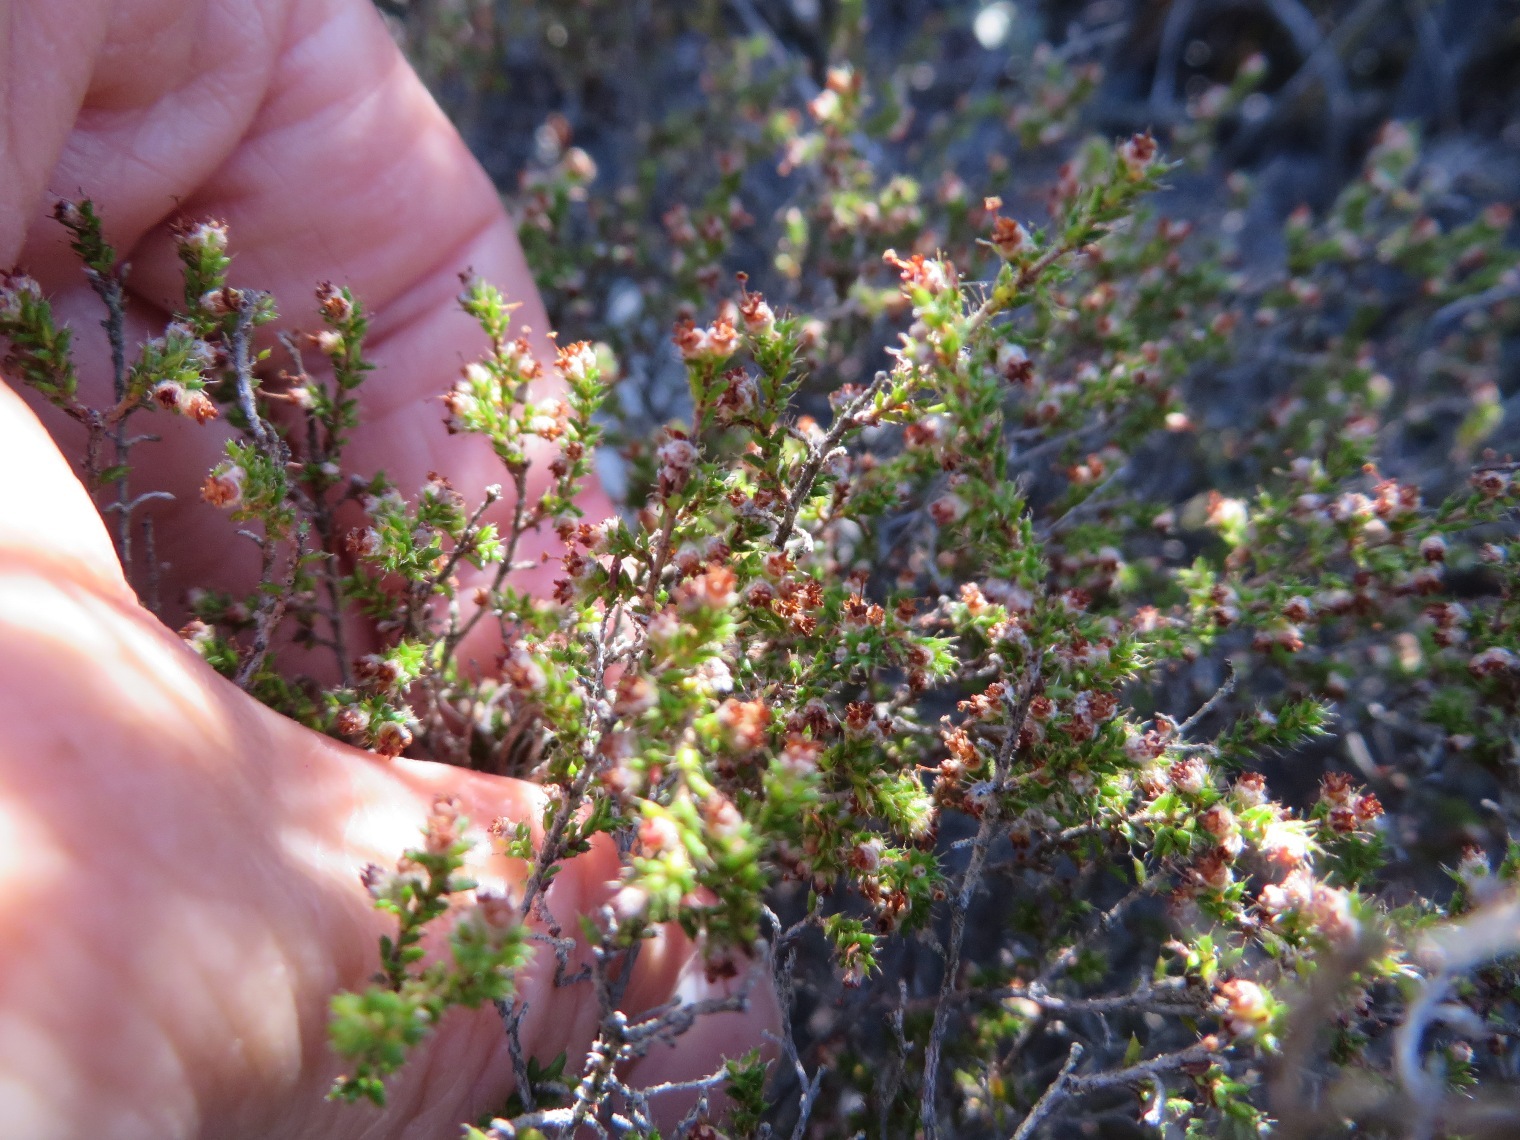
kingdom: Plantae
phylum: Tracheophyta
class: Magnoliopsida
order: Ericales
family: Ericaceae
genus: Erica
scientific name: Erica rigidula
